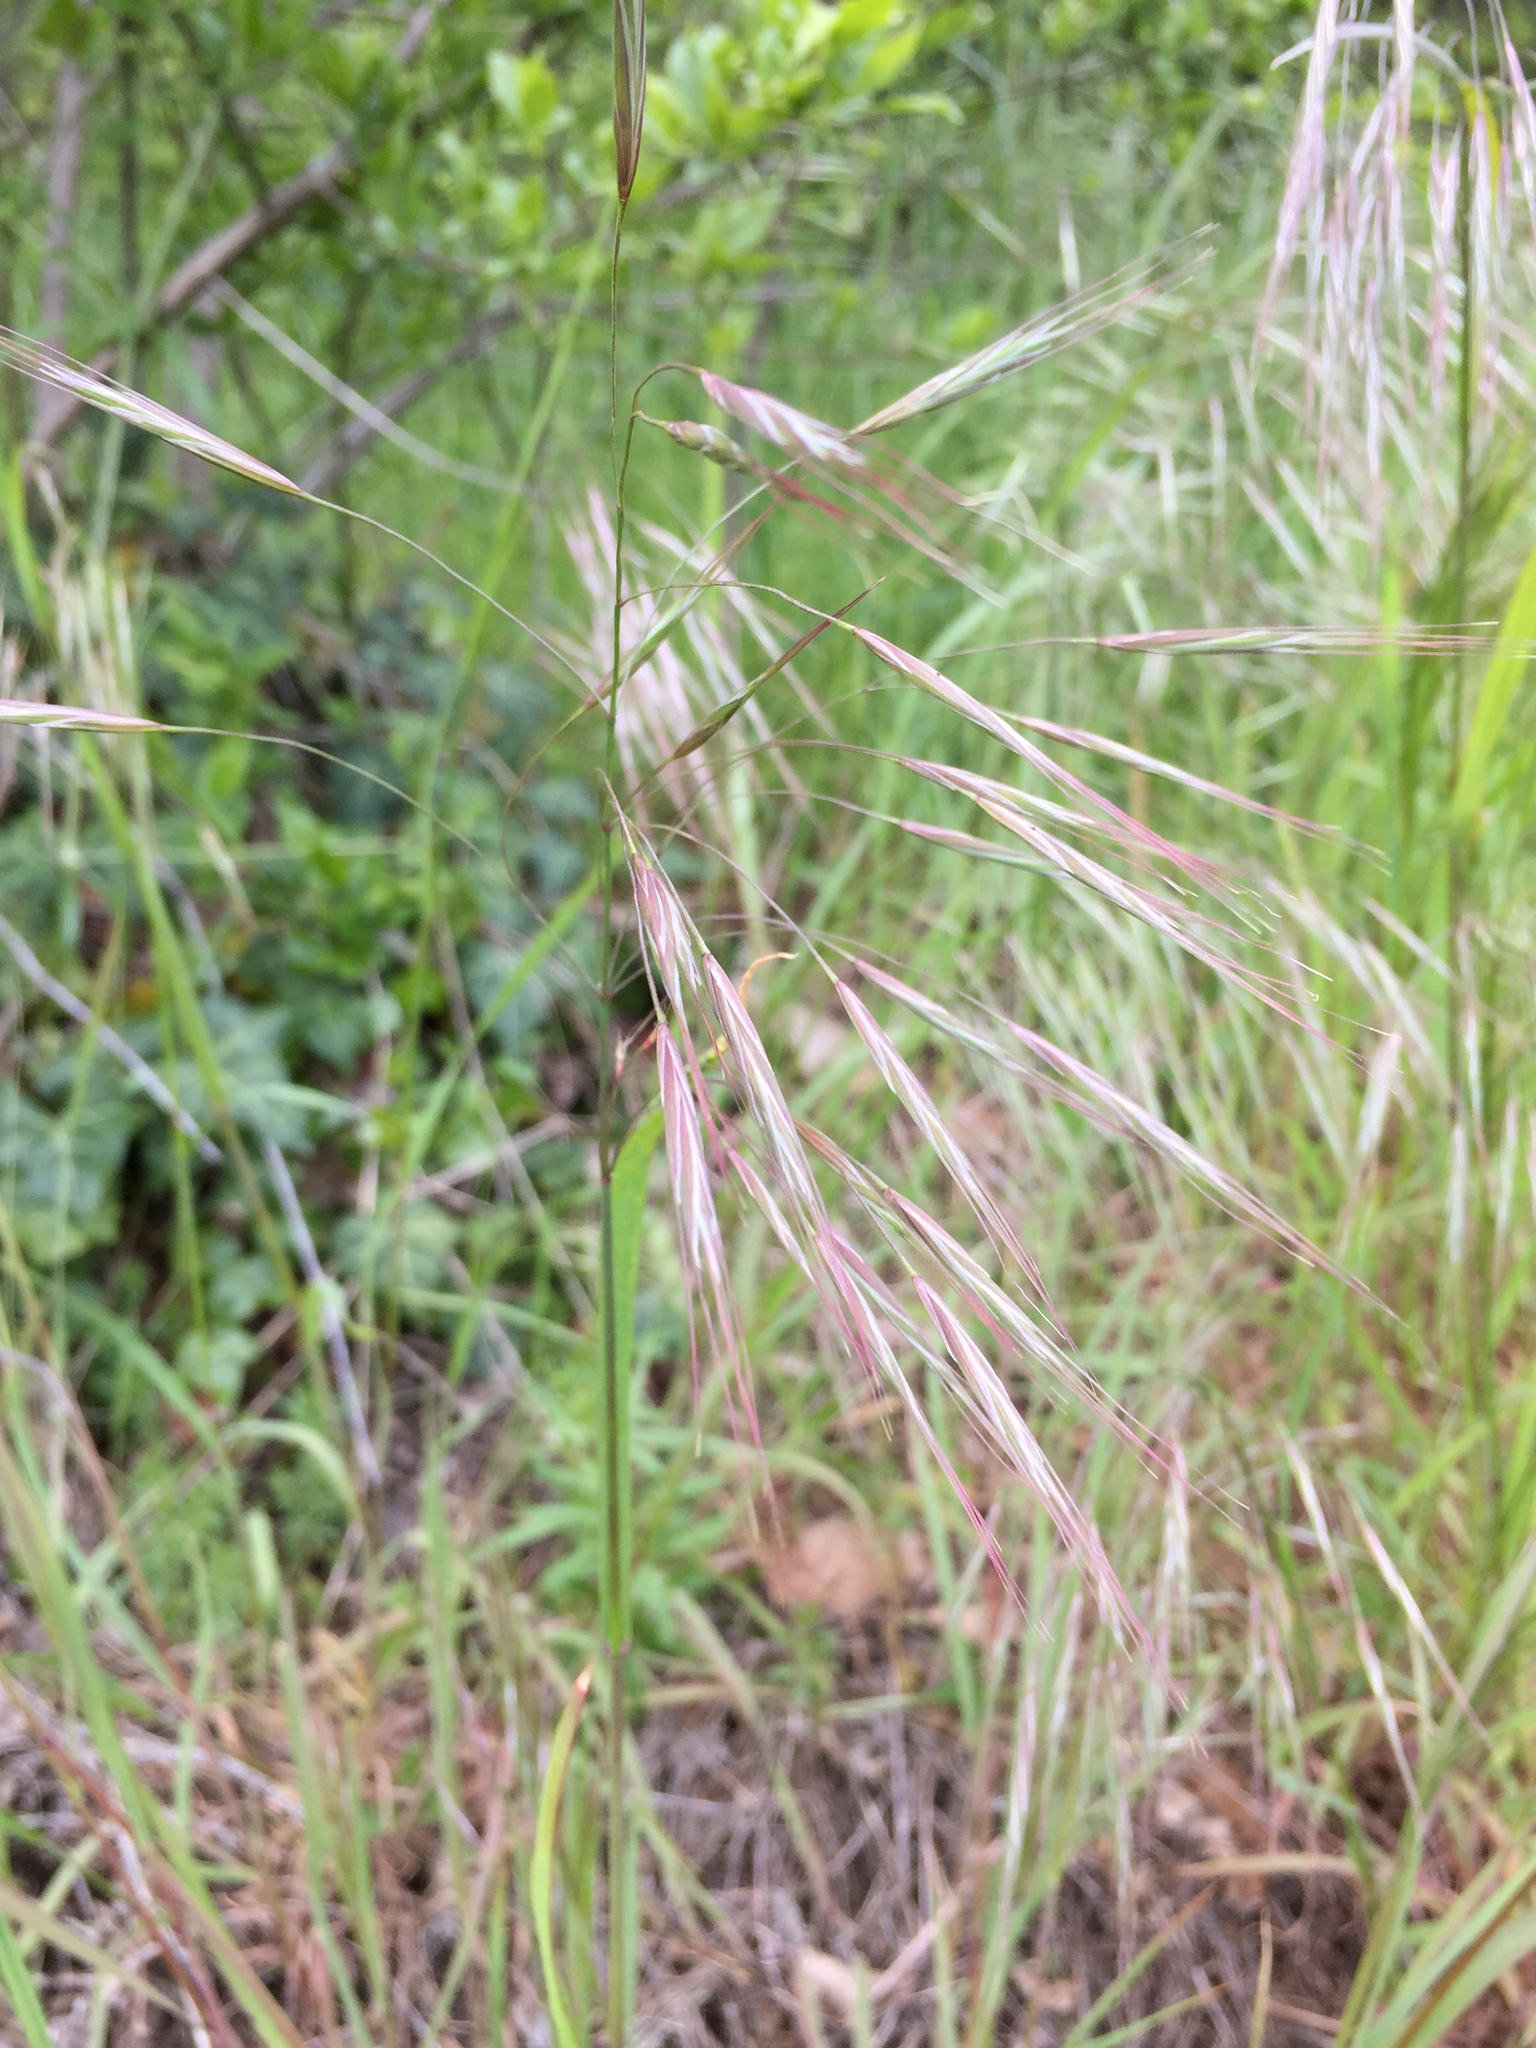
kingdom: Plantae
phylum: Tracheophyta
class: Liliopsida
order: Poales
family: Poaceae
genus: Bromus
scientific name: Bromus sterilis
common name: Poverty brome
